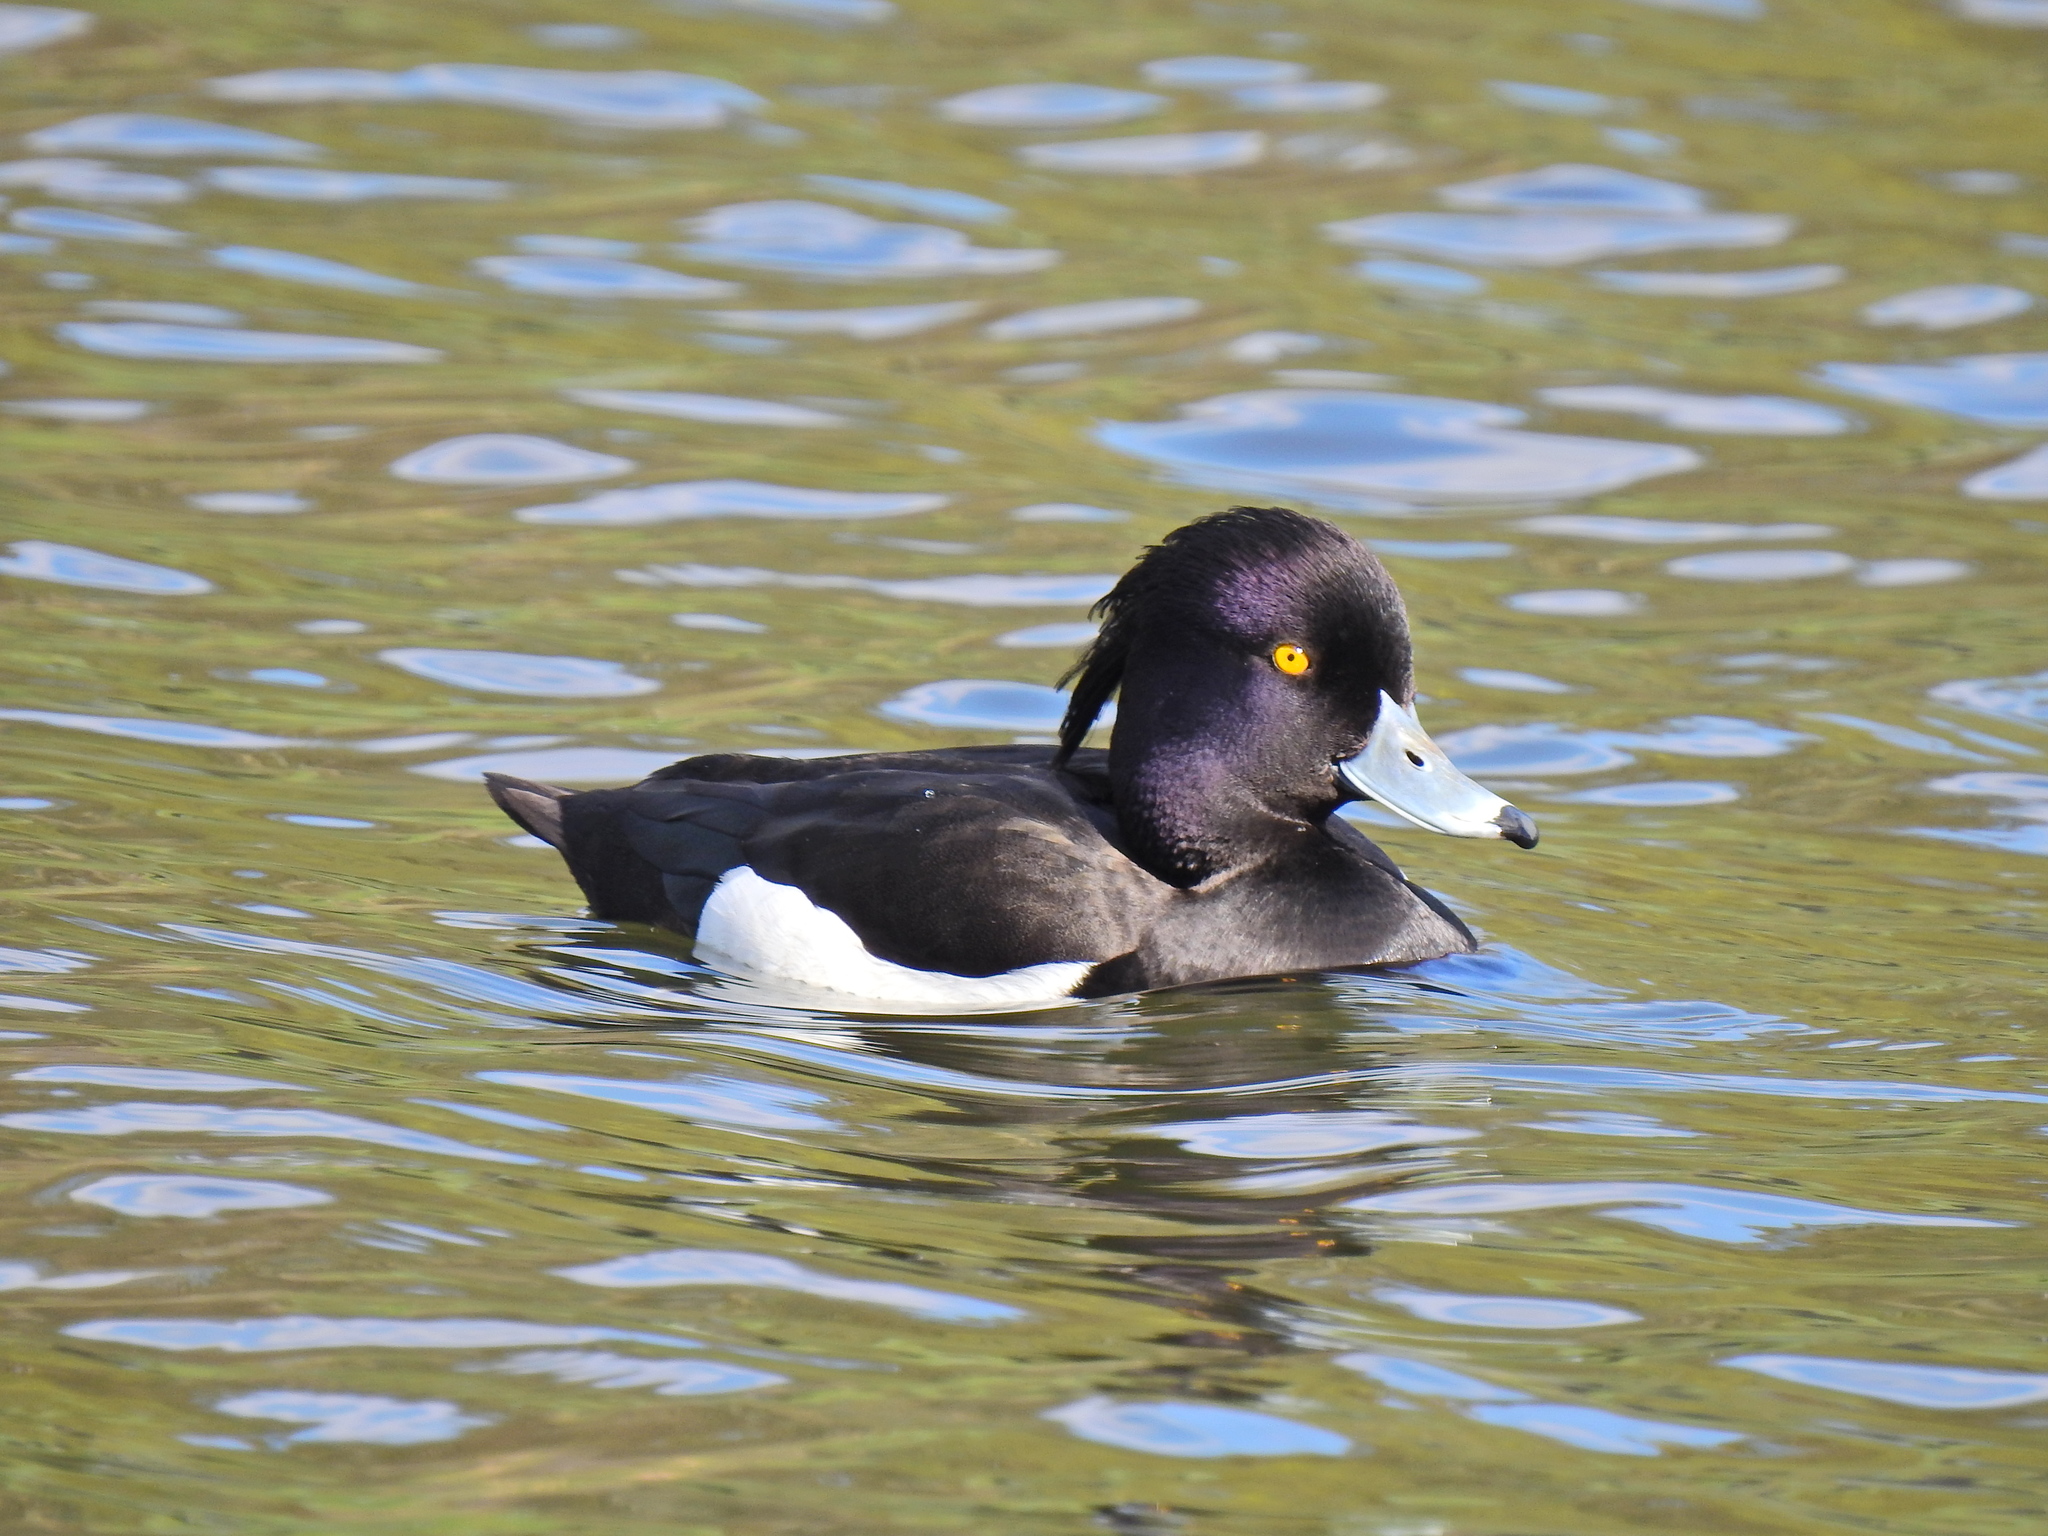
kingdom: Animalia
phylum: Chordata
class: Aves
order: Anseriformes
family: Anatidae
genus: Aythya
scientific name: Aythya fuligula
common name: Tufted duck
